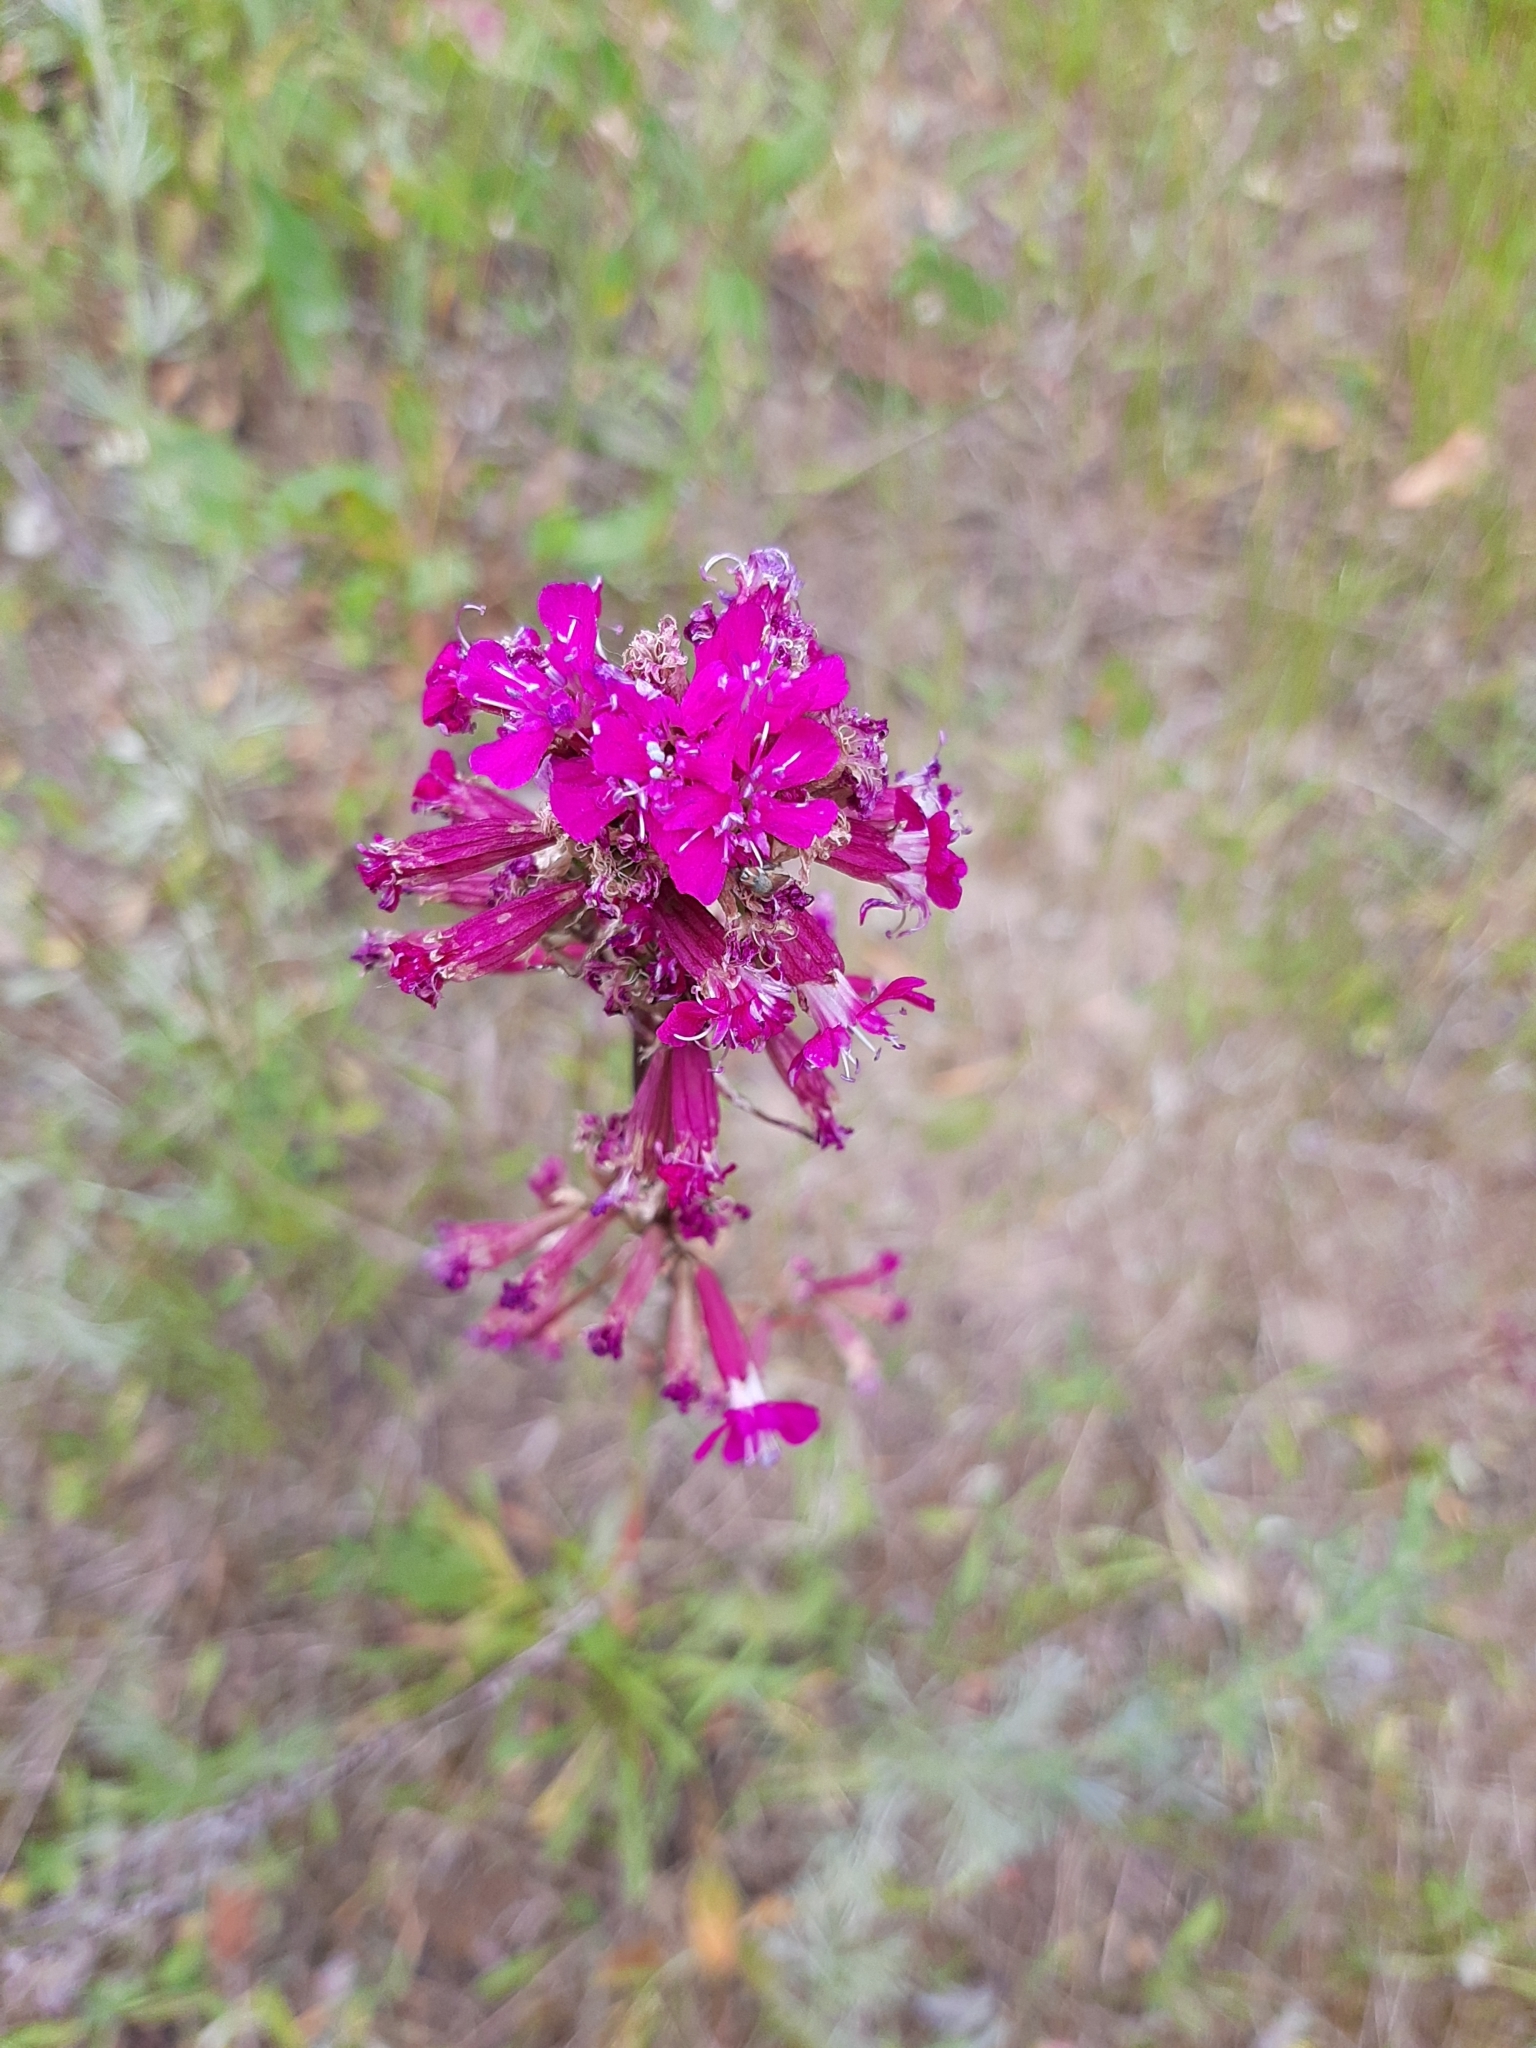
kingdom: Plantae
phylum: Tracheophyta
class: Magnoliopsida
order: Caryophyllales
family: Caryophyllaceae
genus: Viscaria
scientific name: Viscaria vulgaris
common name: Clammy campion
